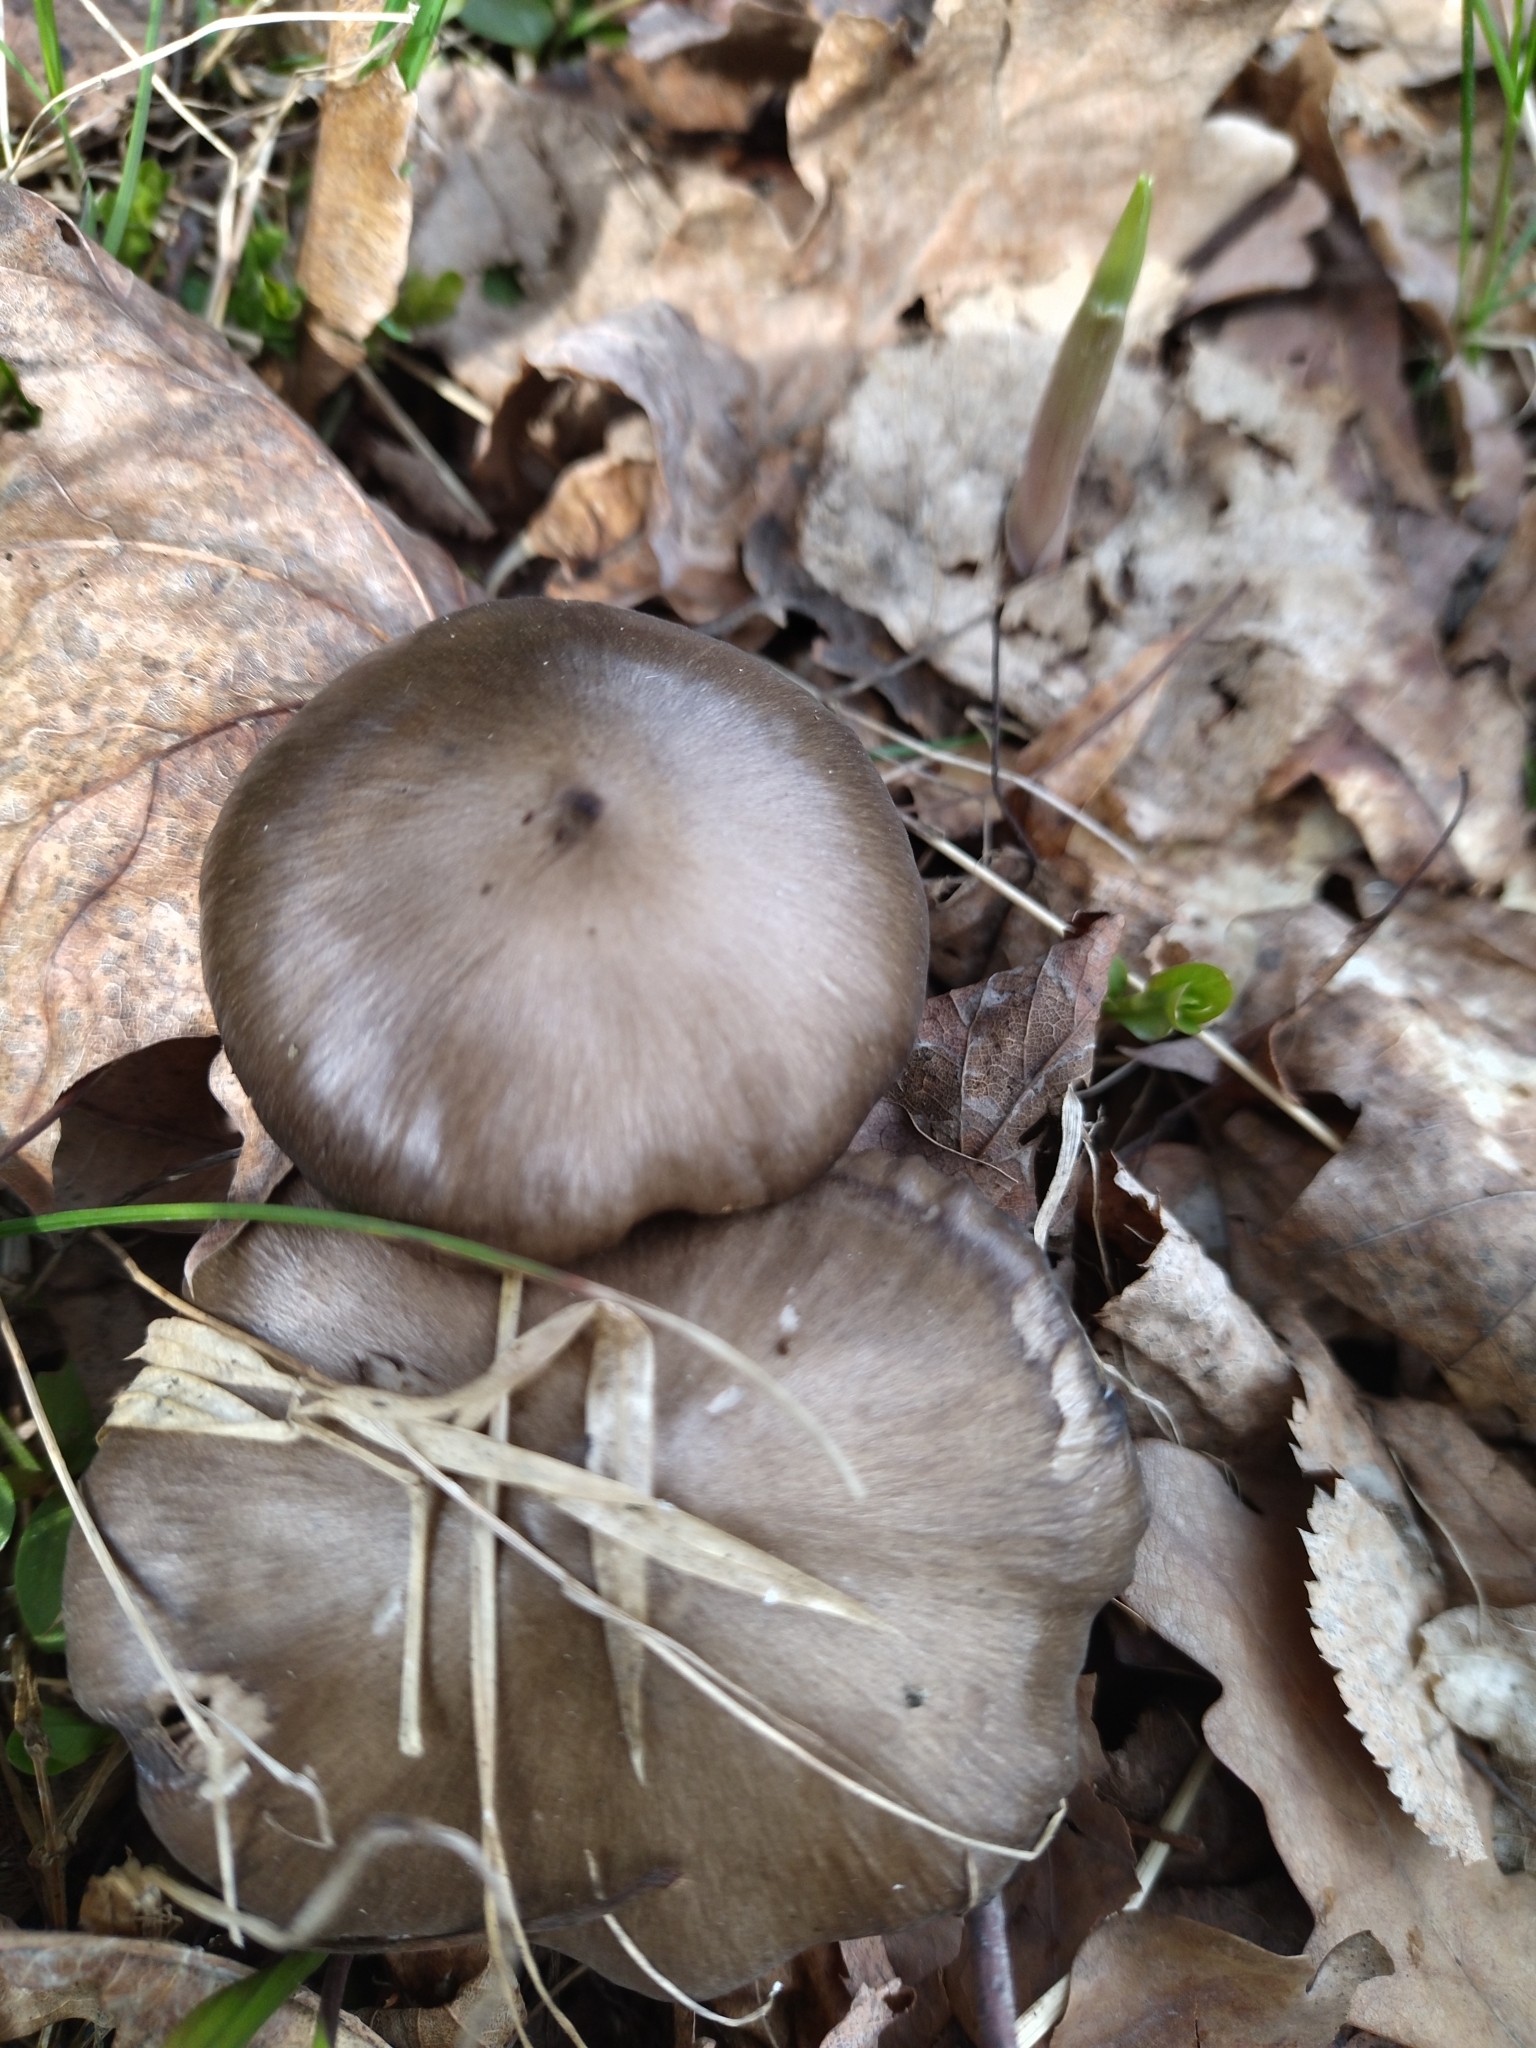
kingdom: Fungi
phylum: Basidiomycota
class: Agaricomycetes
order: Agaricales
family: Entolomataceae
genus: Entoloma
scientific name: Entoloma vernum
